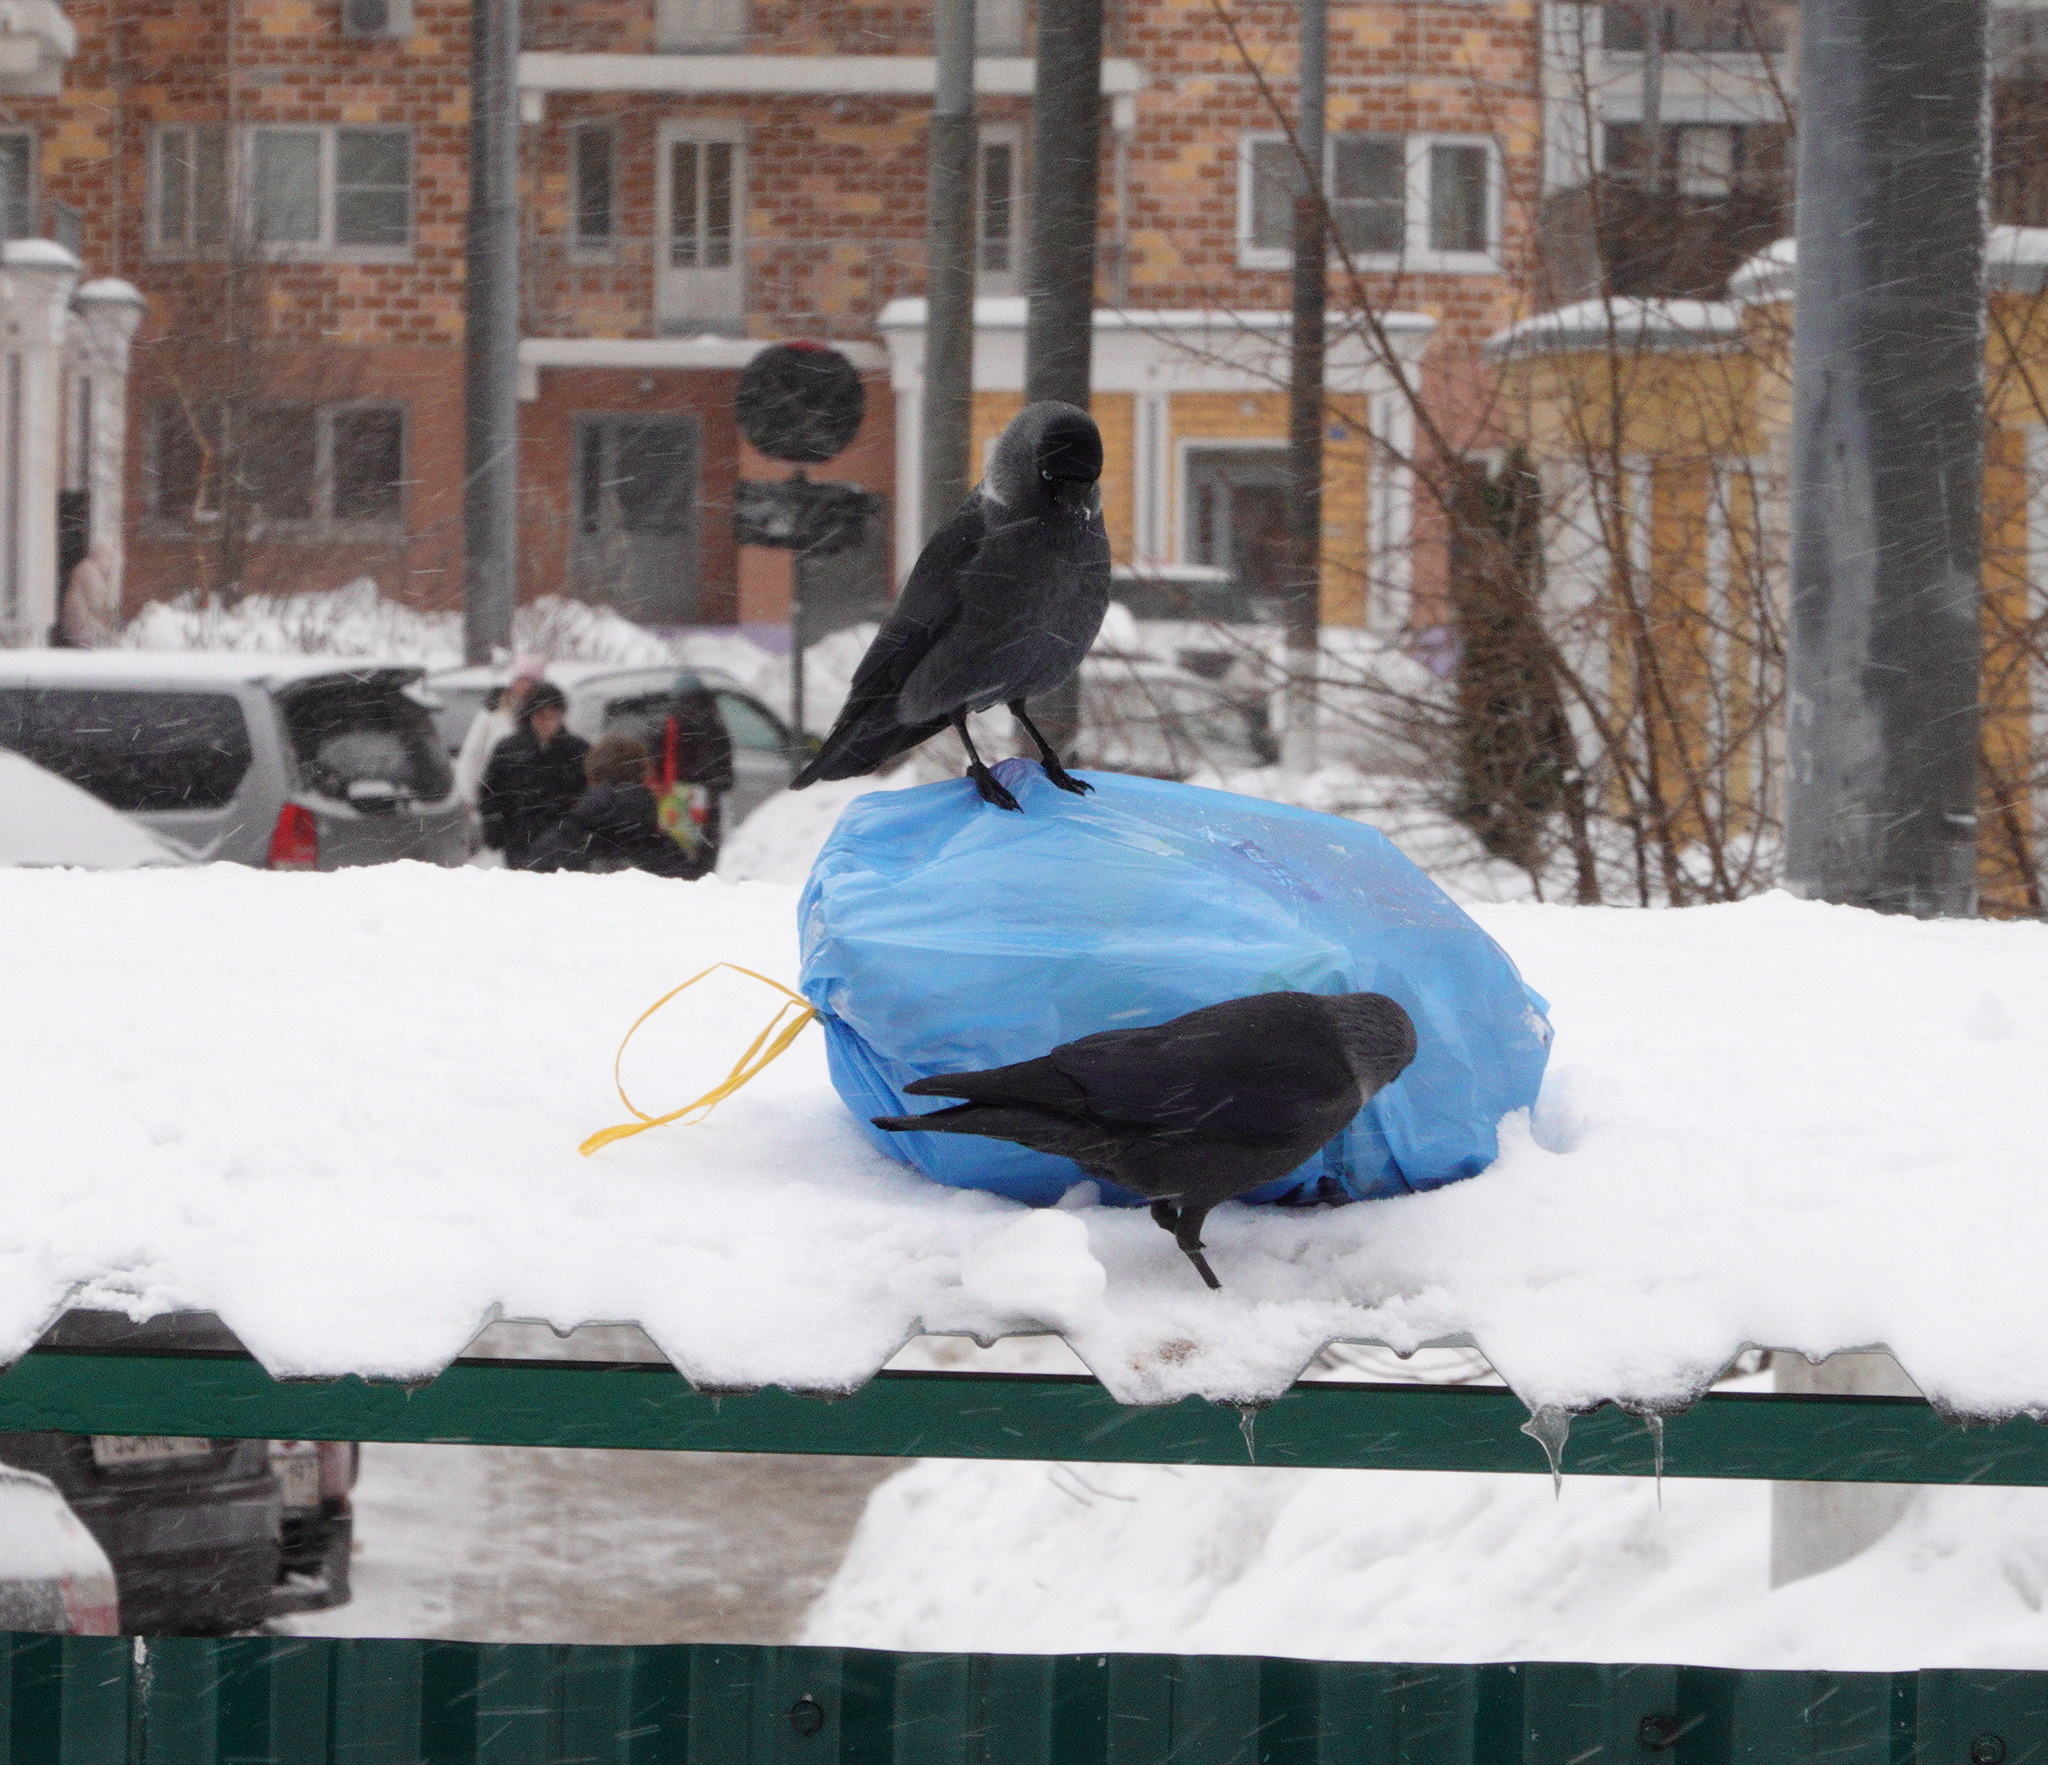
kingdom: Animalia
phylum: Chordata
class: Aves
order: Passeriformes
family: Corvidae
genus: Coloeus
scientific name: Coloeus monedula
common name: Western jackdaw
